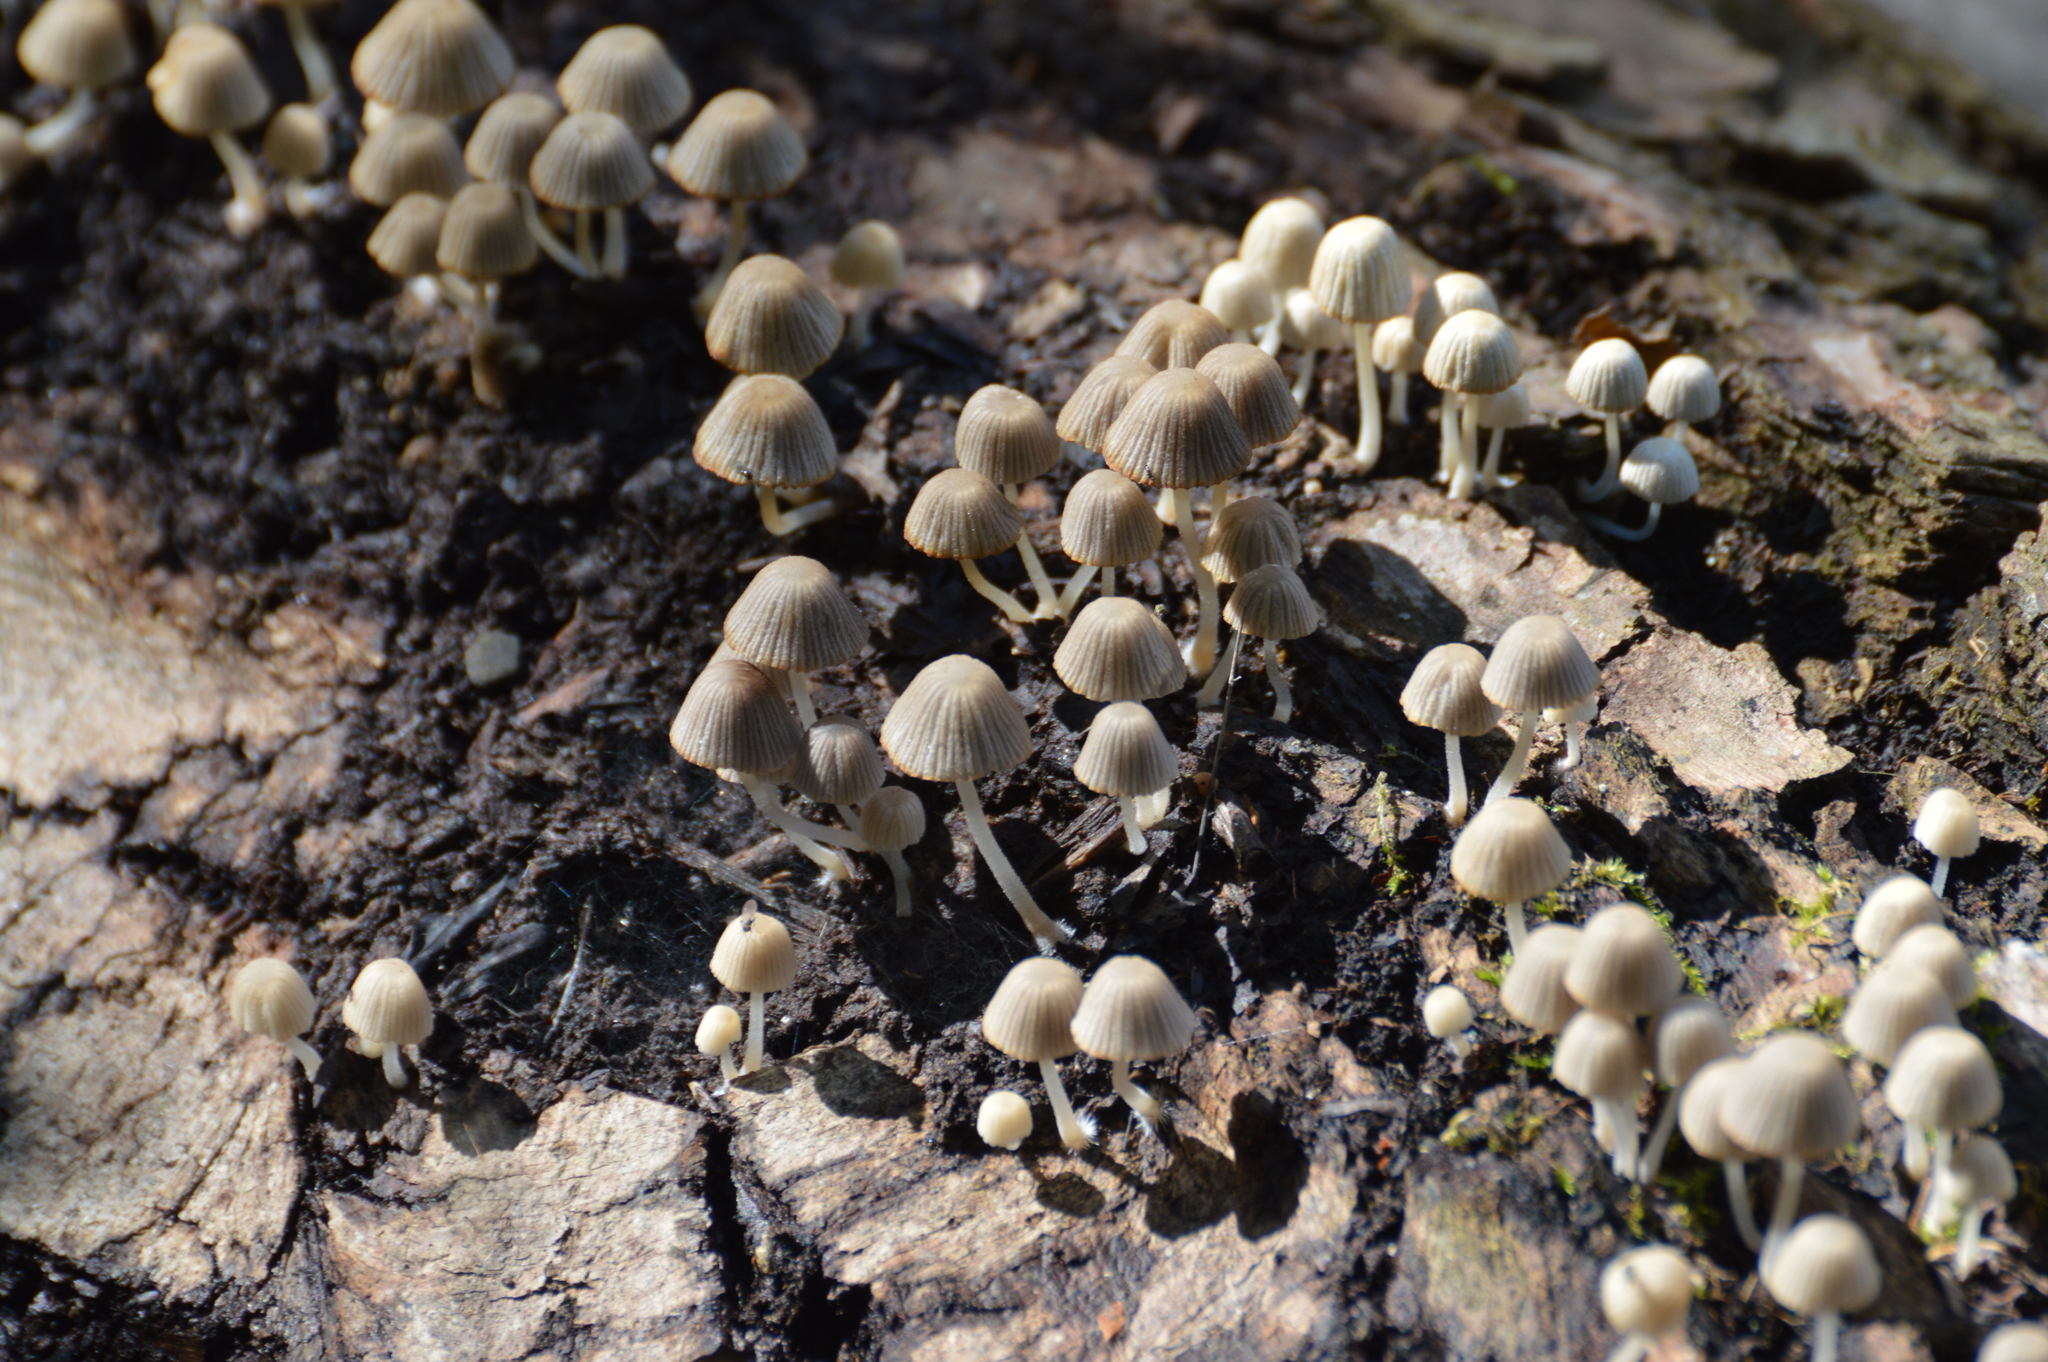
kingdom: Fungi
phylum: Basidiomycota
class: Agaricomycetes
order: Agaricales
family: Psathyrellaceae
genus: Coprinellus
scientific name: Coprinellus
